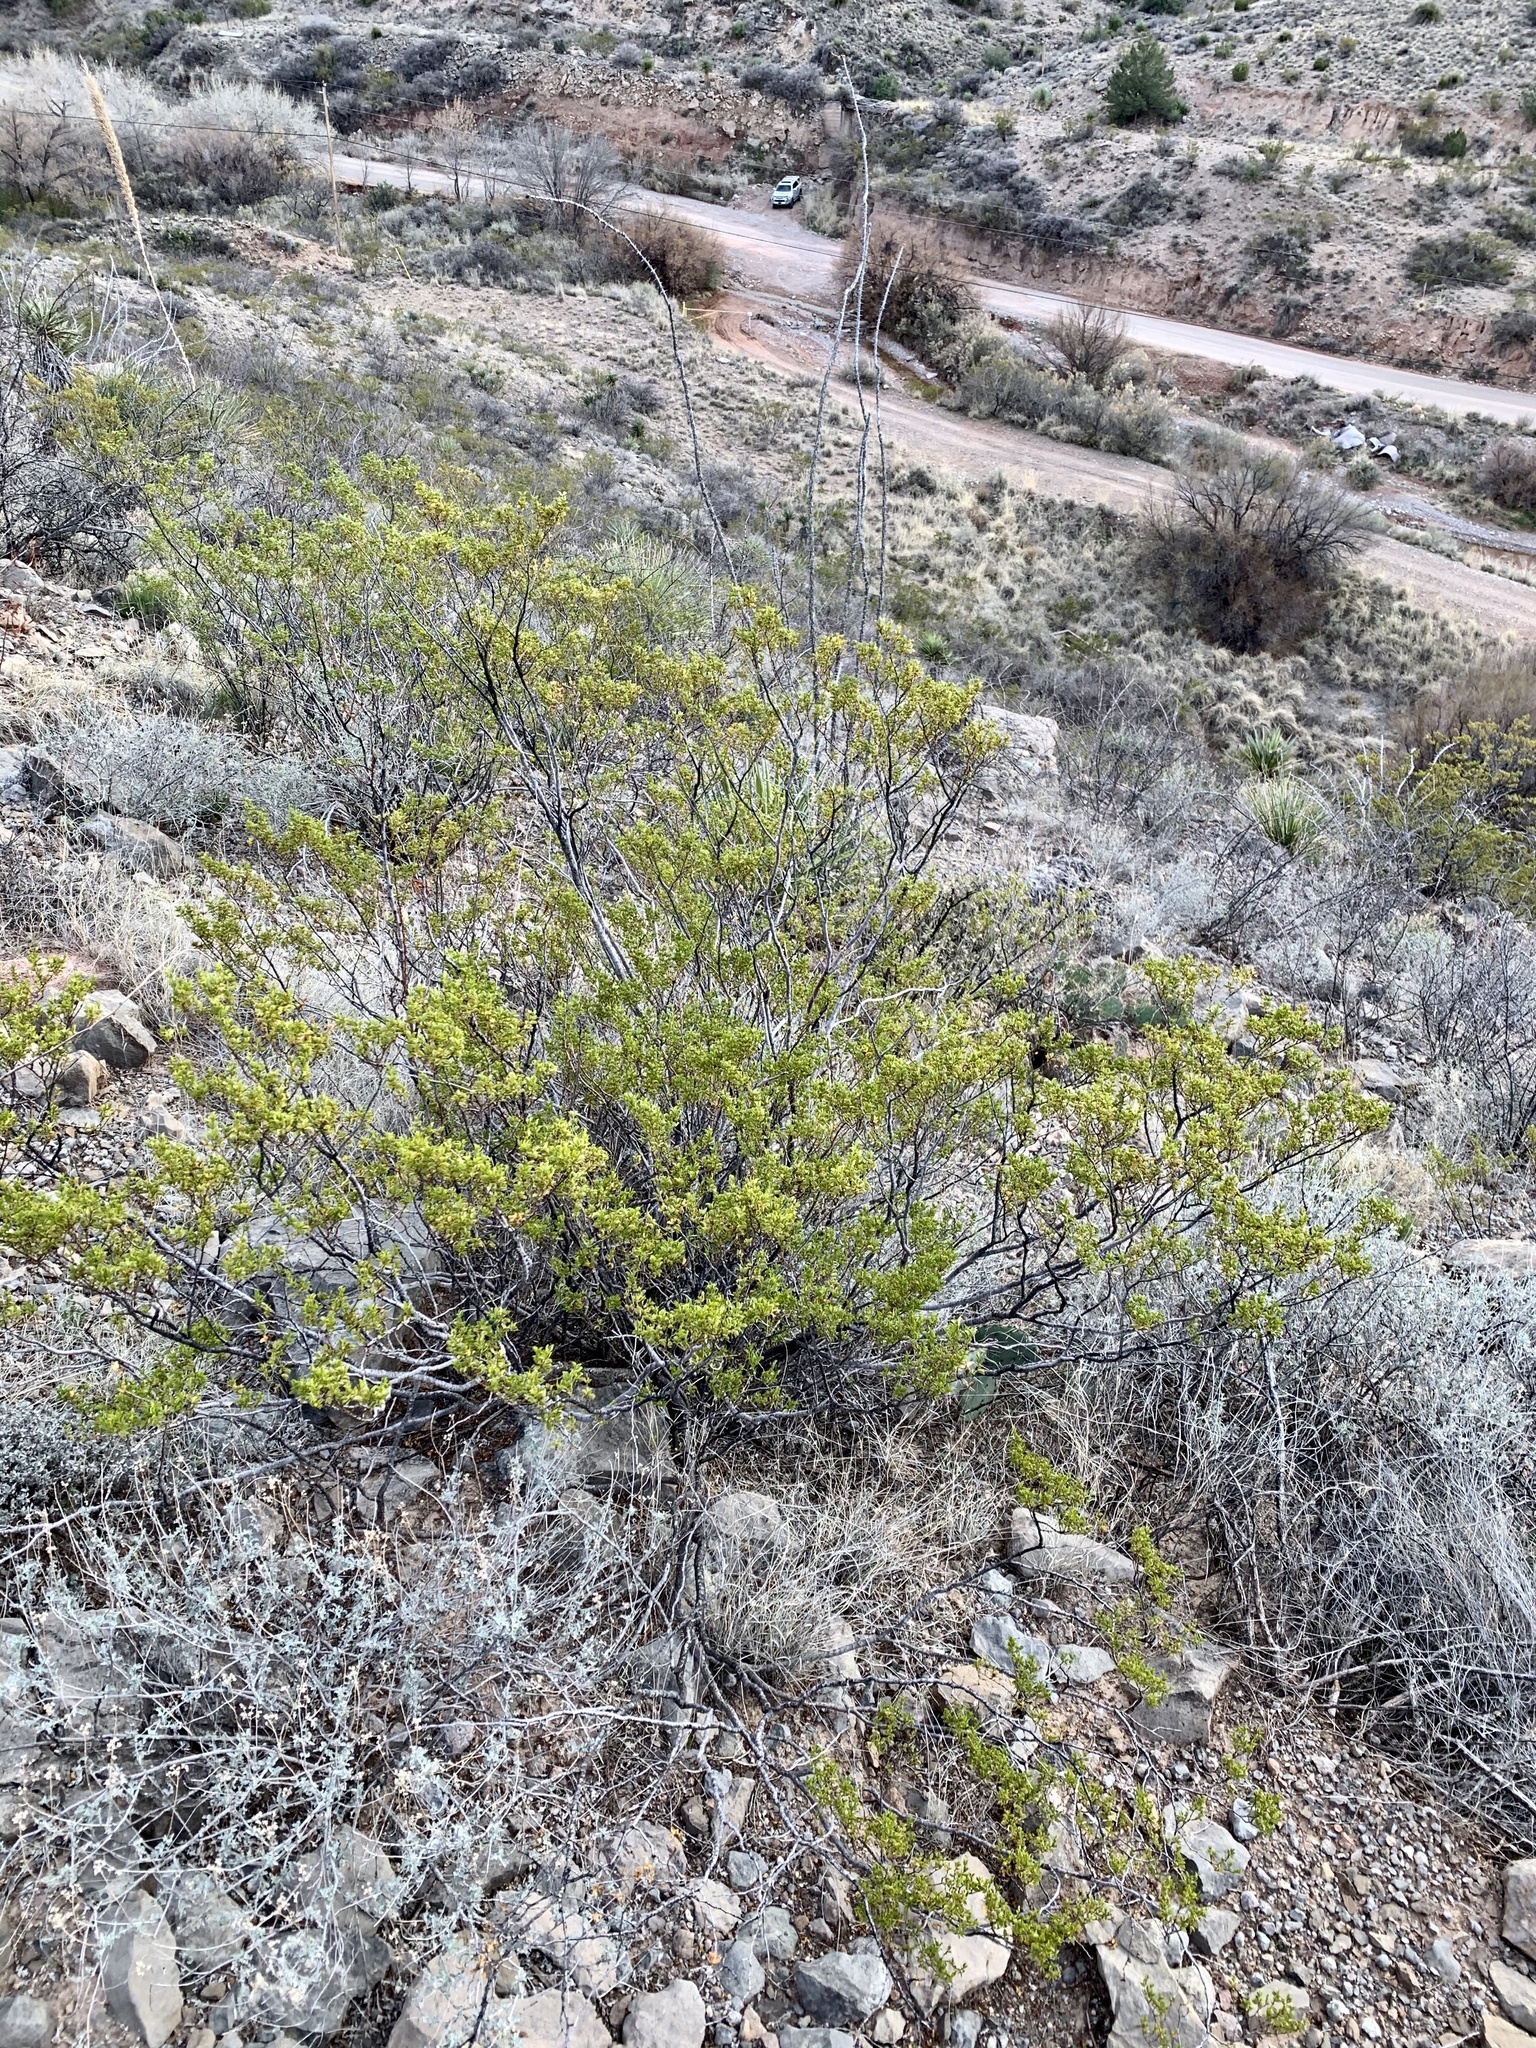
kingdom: Plantae
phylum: Tracheophyta
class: Magnoliopsida
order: Zygophyllales
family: Zygophyllaceae
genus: Larrea
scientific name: Larrea tridentata
